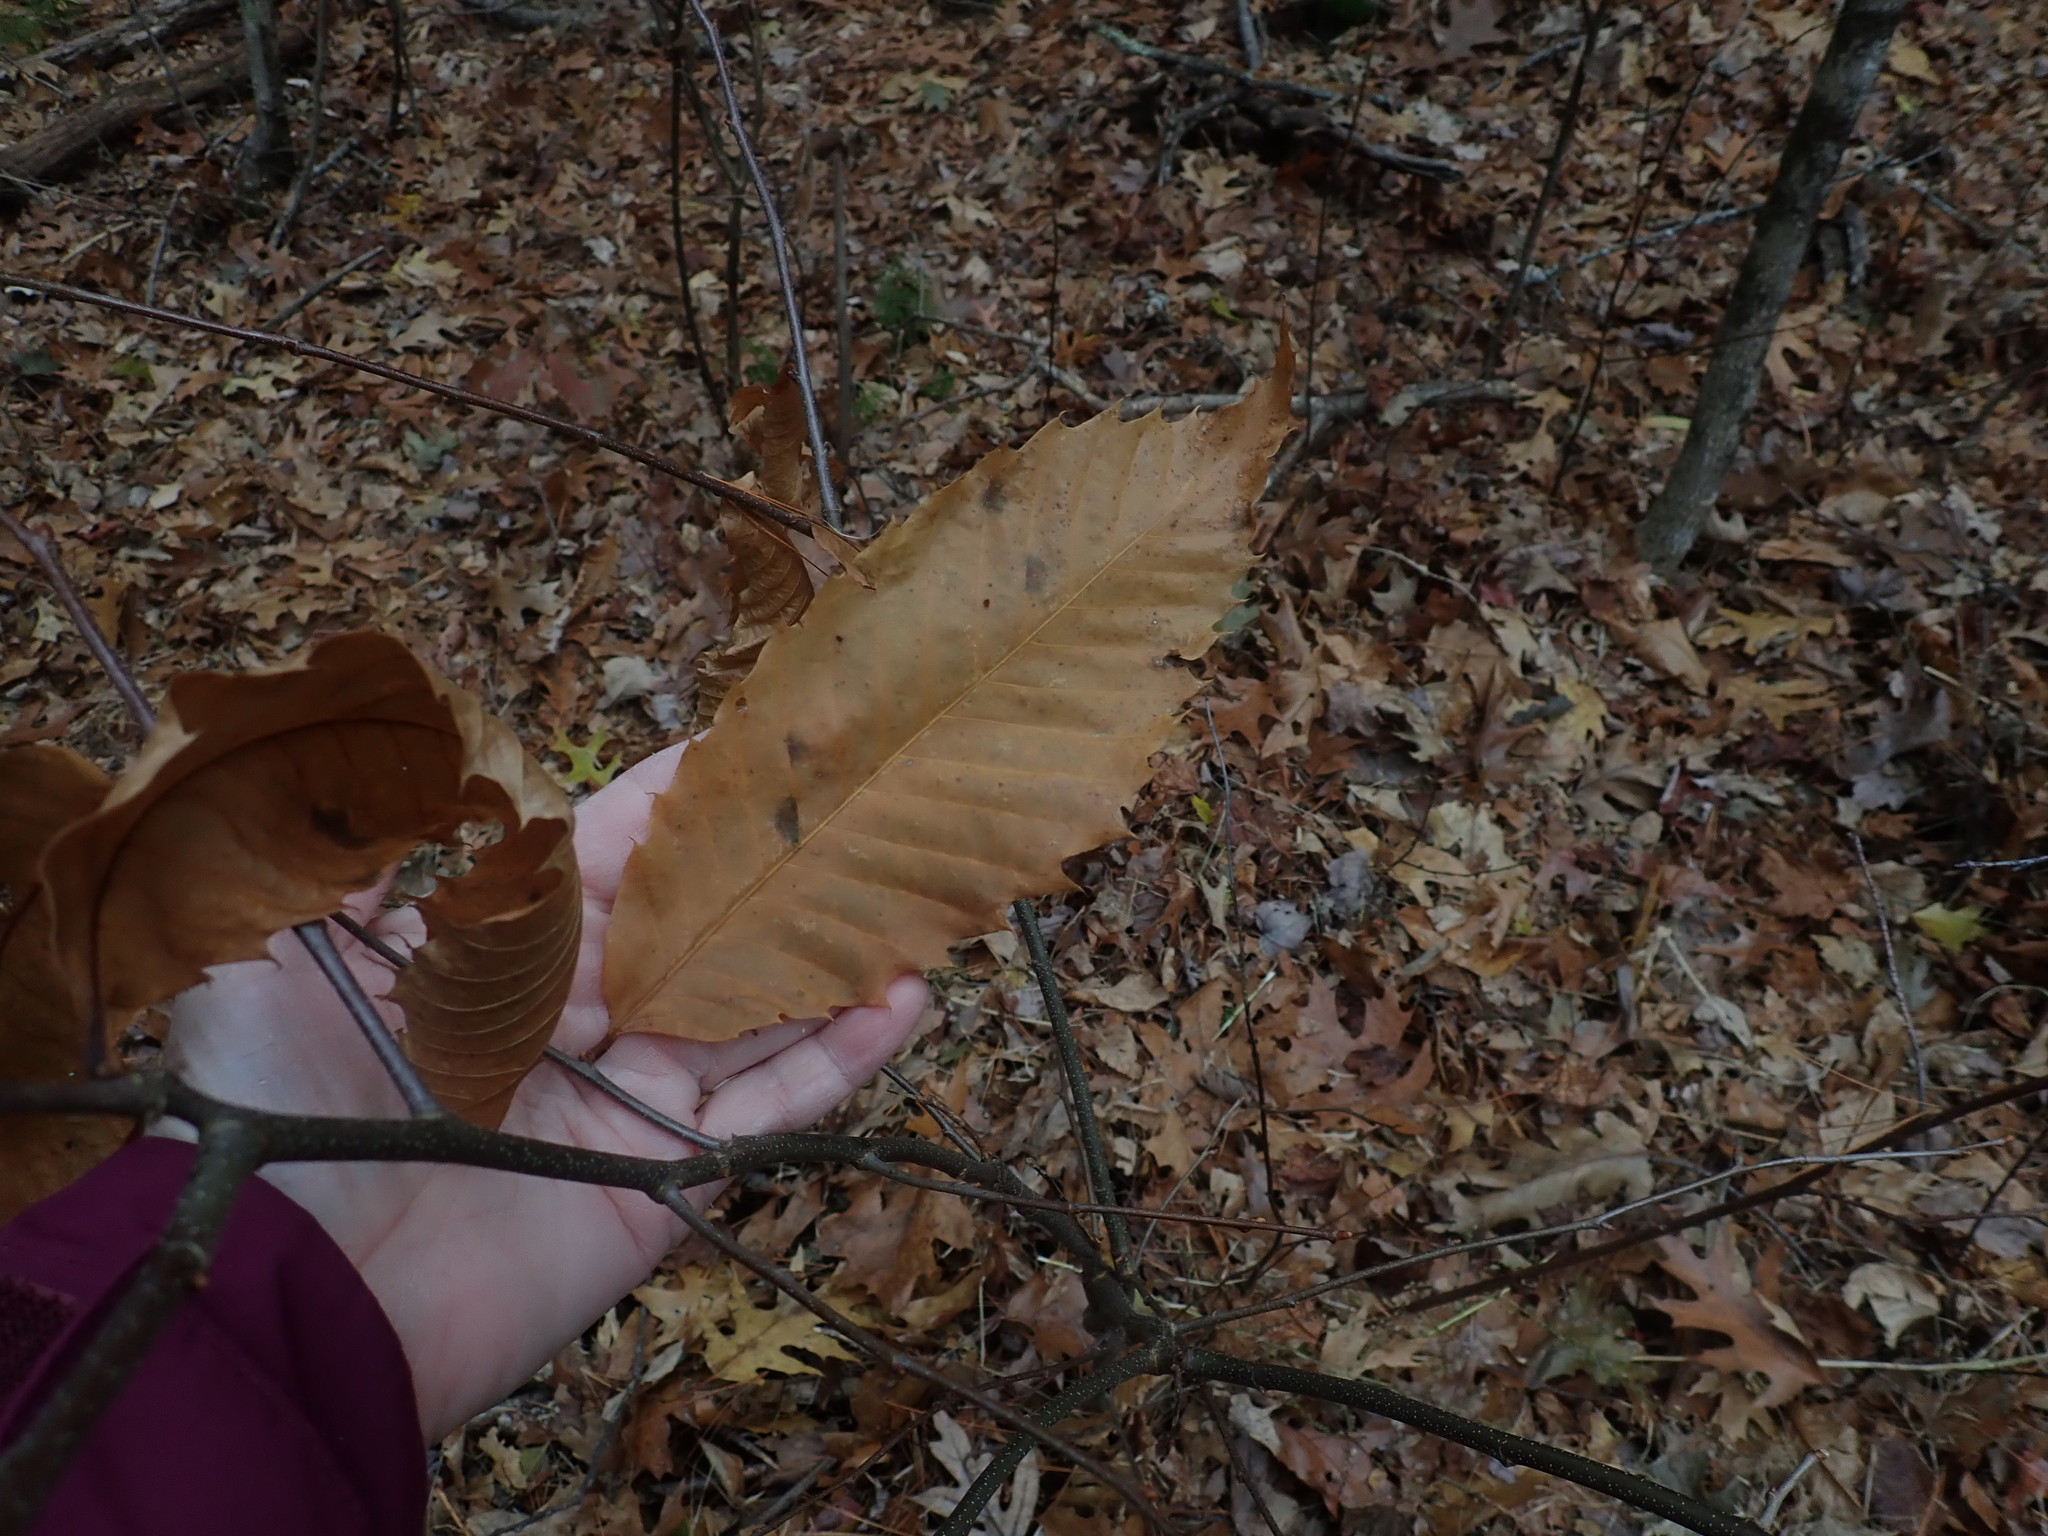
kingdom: Plantae
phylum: Tracheophyta
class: Magnoliopsida
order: Fagales
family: Fagaceae
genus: Castanea
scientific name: Castanea dentata
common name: American chestnut
